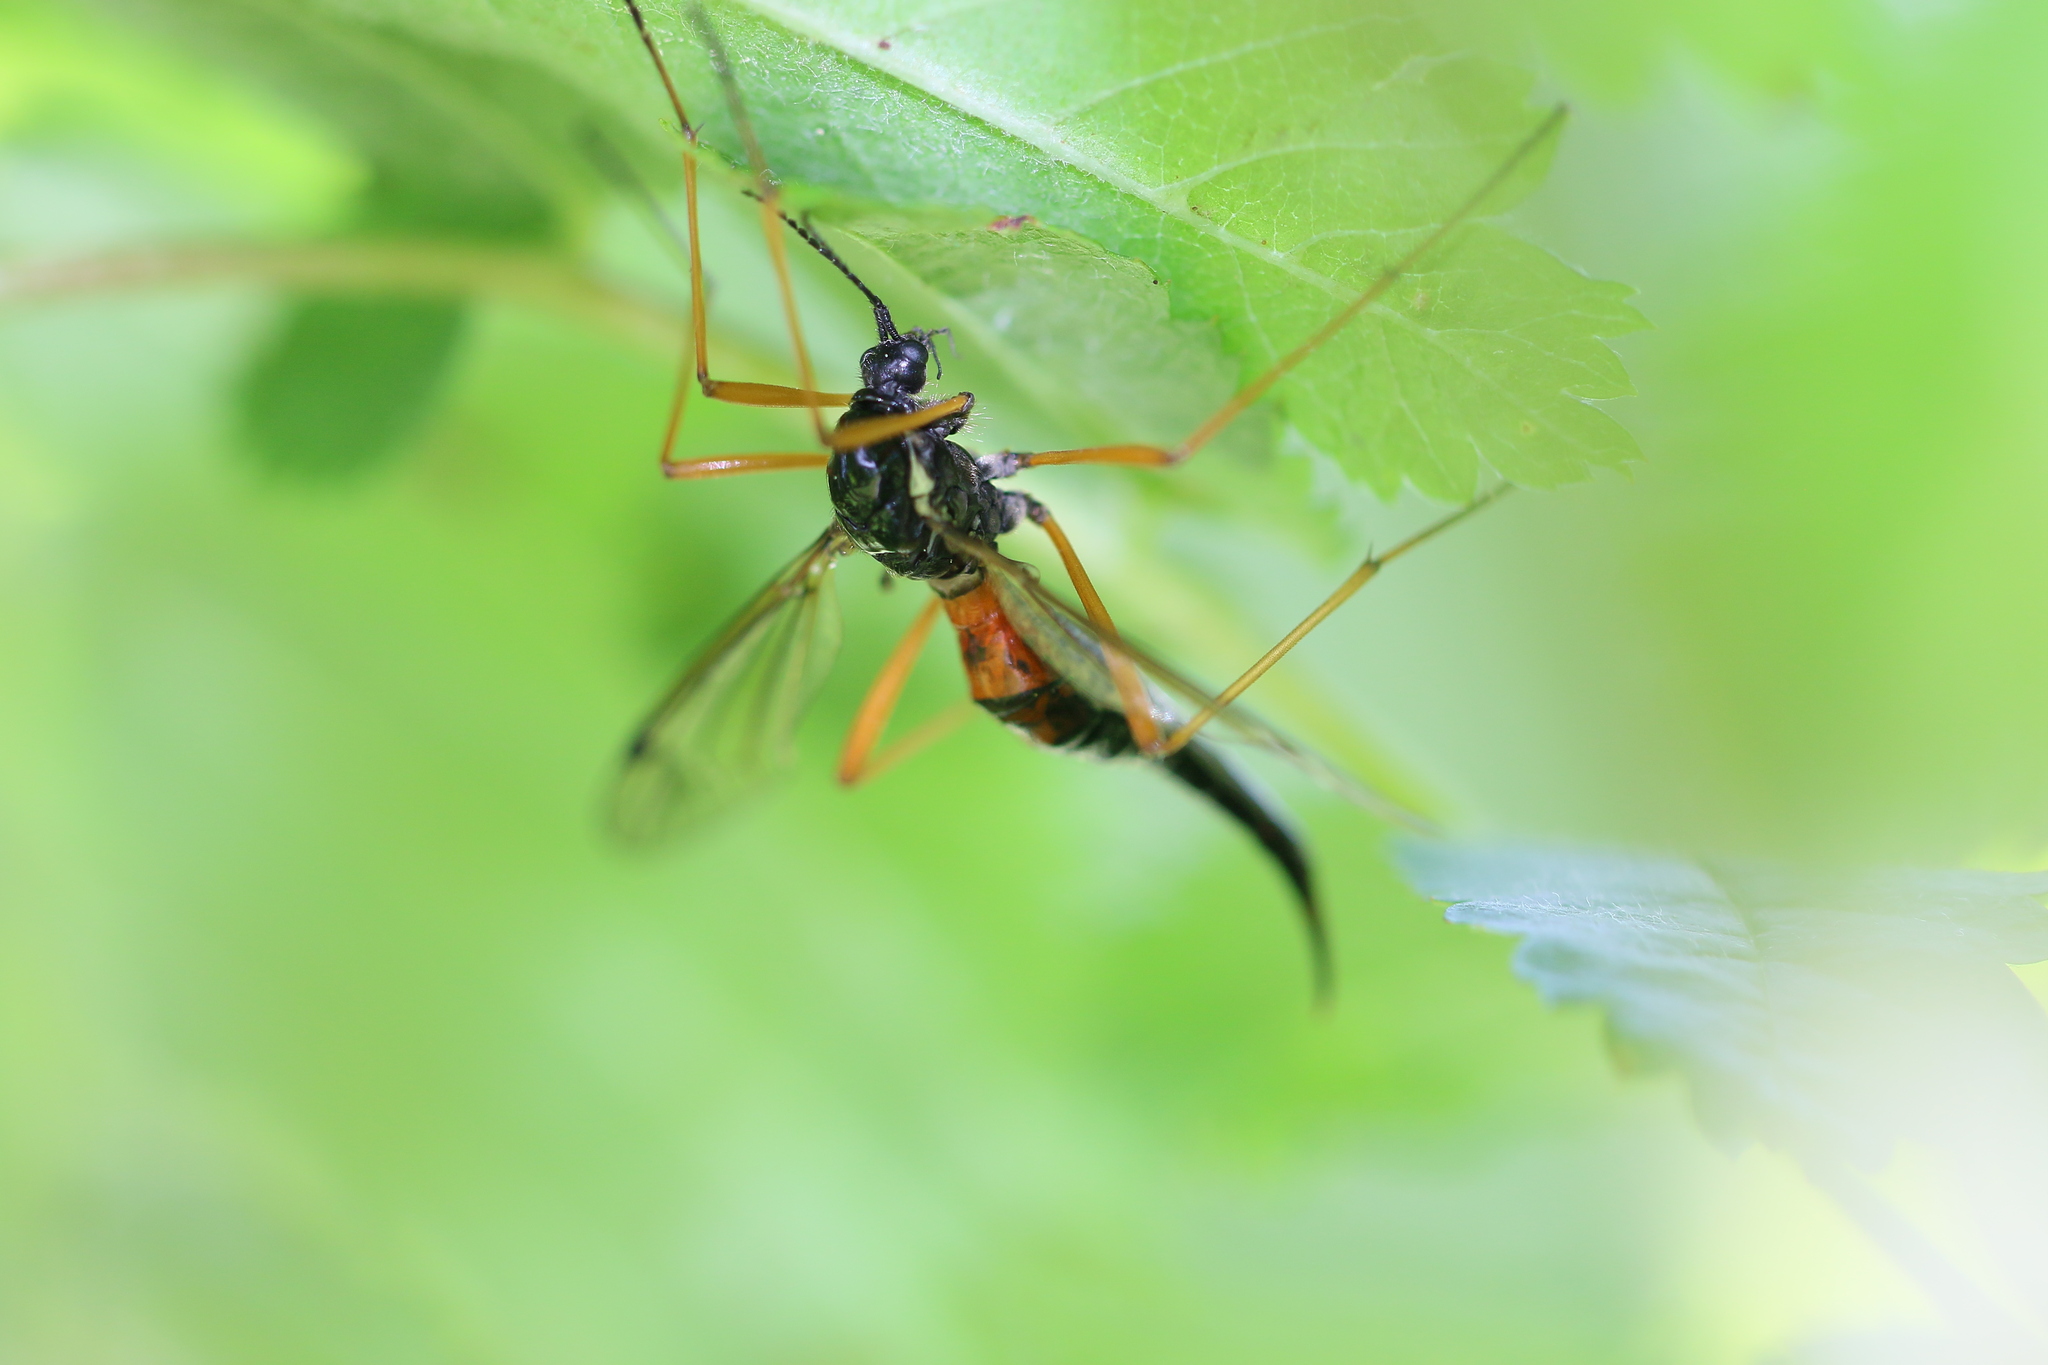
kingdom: Animalia
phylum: Arthropoda
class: Insecta
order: Diptera
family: Tipulidae
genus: Tanyptera
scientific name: Tanyptera dorsalis
